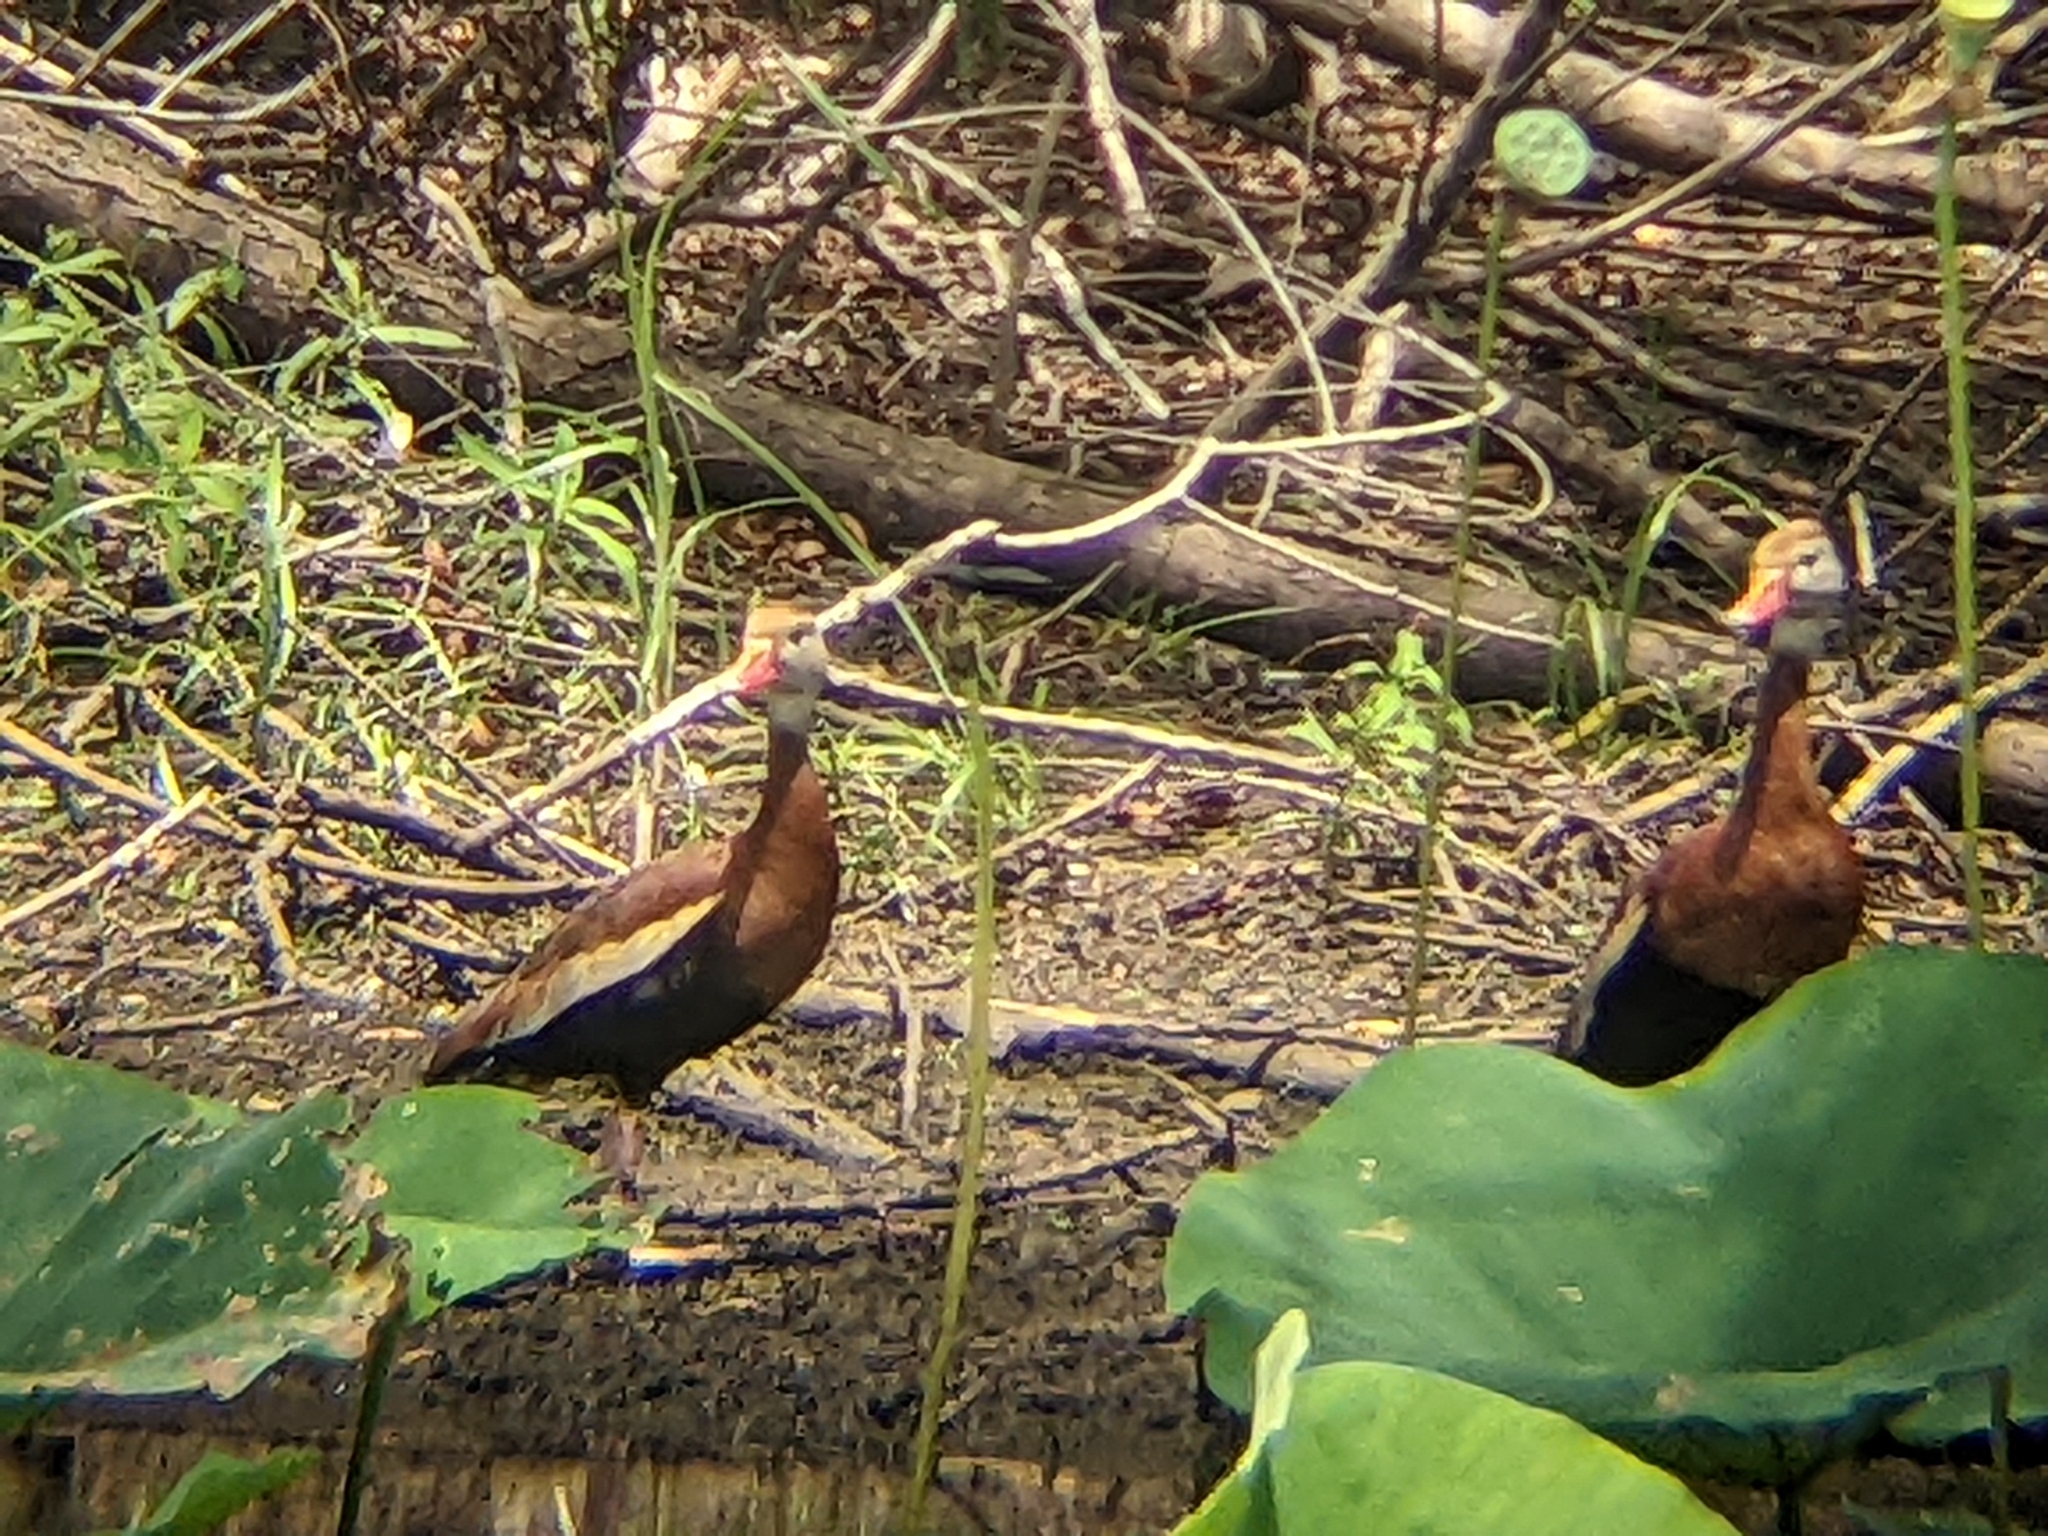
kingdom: Animalia
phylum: Chordata
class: Aves
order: Anseriformes
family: Anatidae
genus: Dendrocygna
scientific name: Dendrocygna autumnalis
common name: Black-bellied whistling duck
